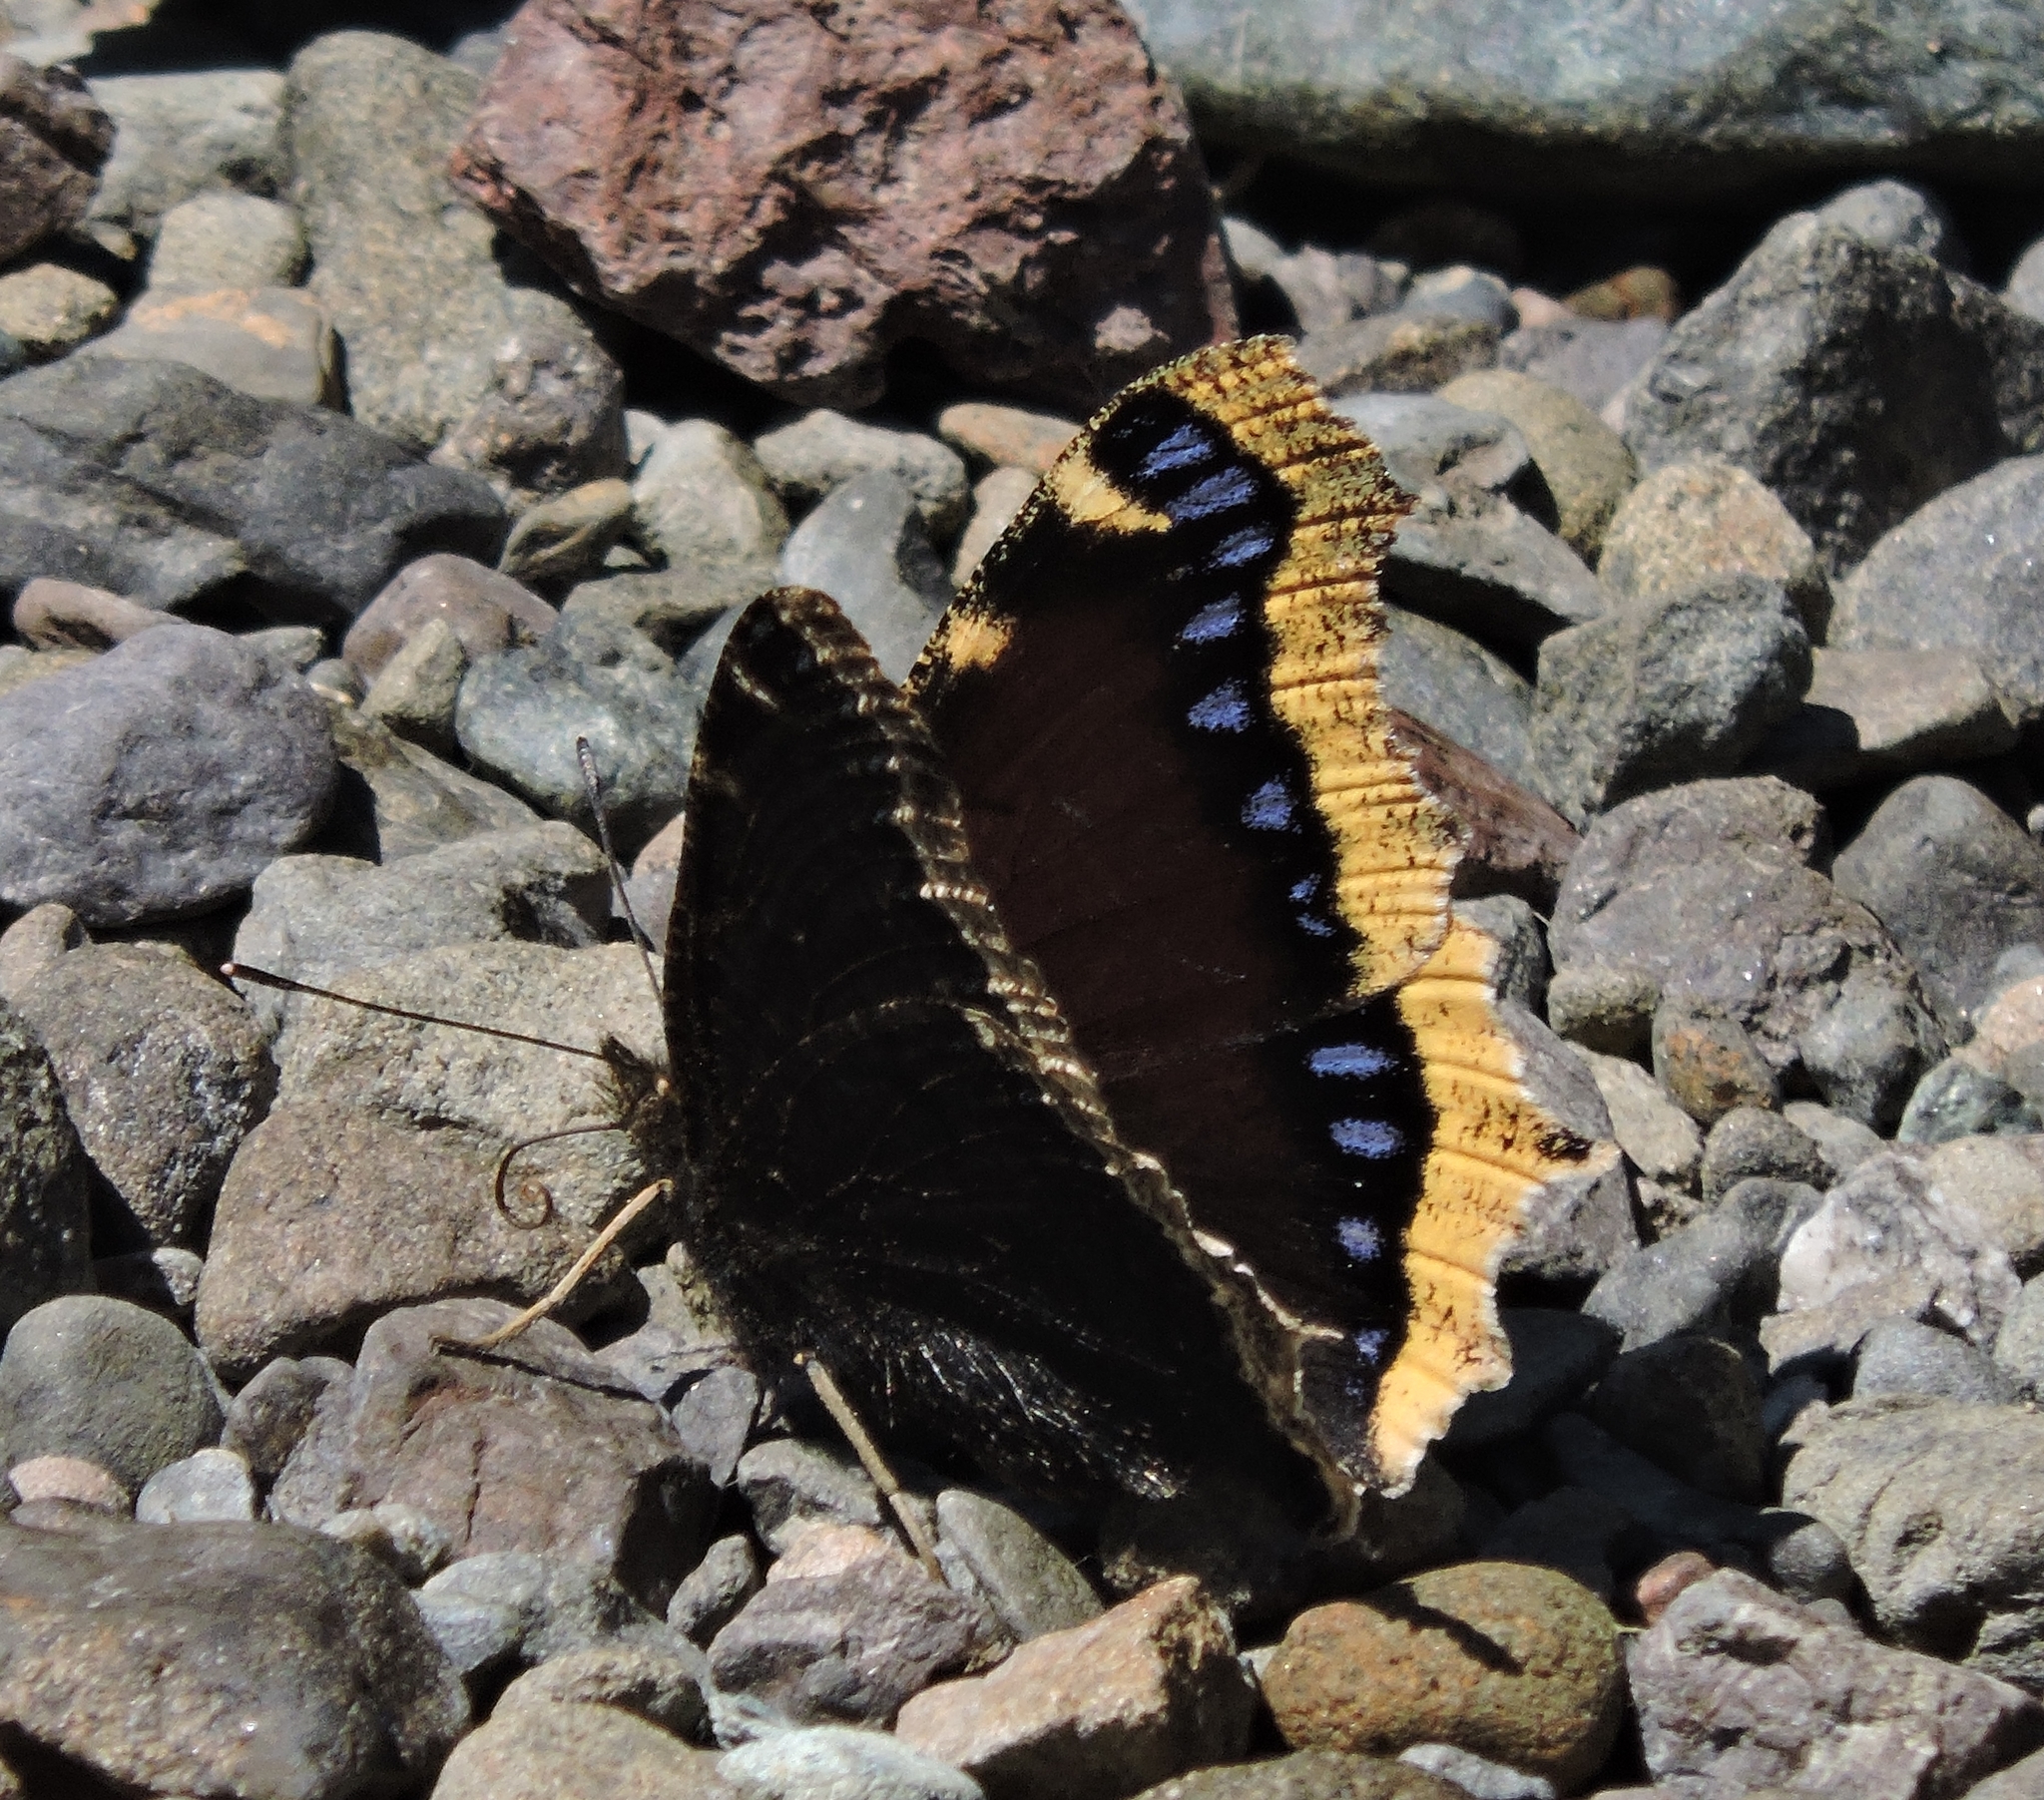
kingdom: Animalia
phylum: Arthropoda
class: Insecta
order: Lepidoptera
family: Nymphalidae
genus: Nymphalis
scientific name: Nymphalis antiopa
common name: Camberwell beauty
